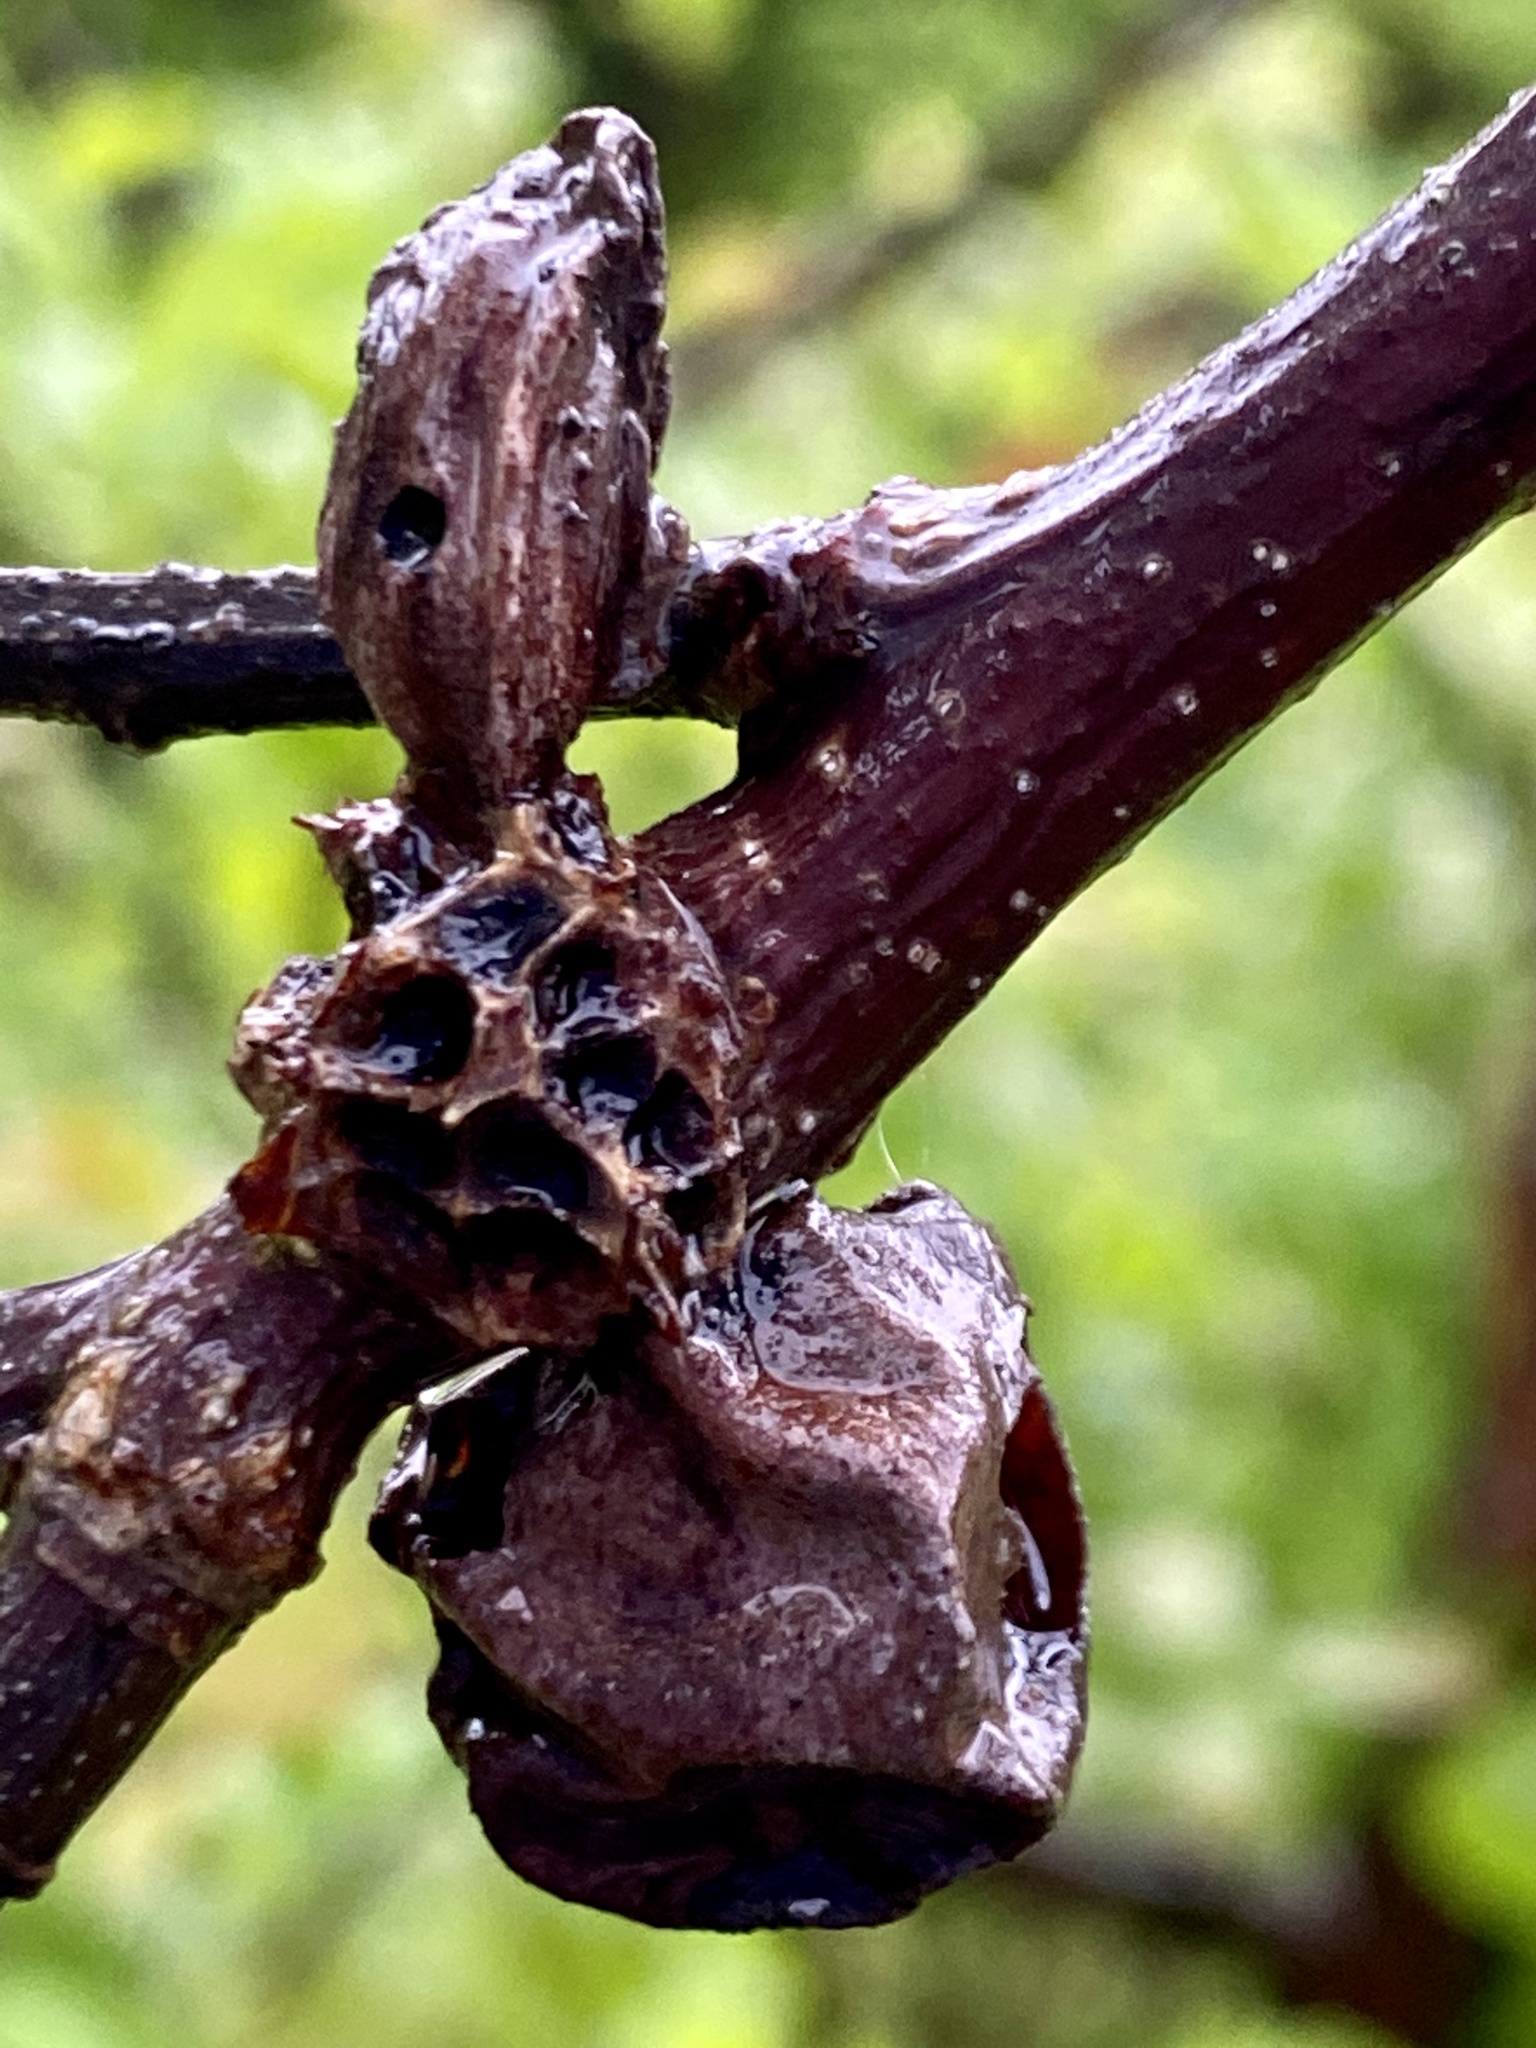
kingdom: Animalia
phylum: Arthropoda
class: Insecta
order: Hymenoptera
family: Cynipidae
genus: Andricus
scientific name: Andricus
